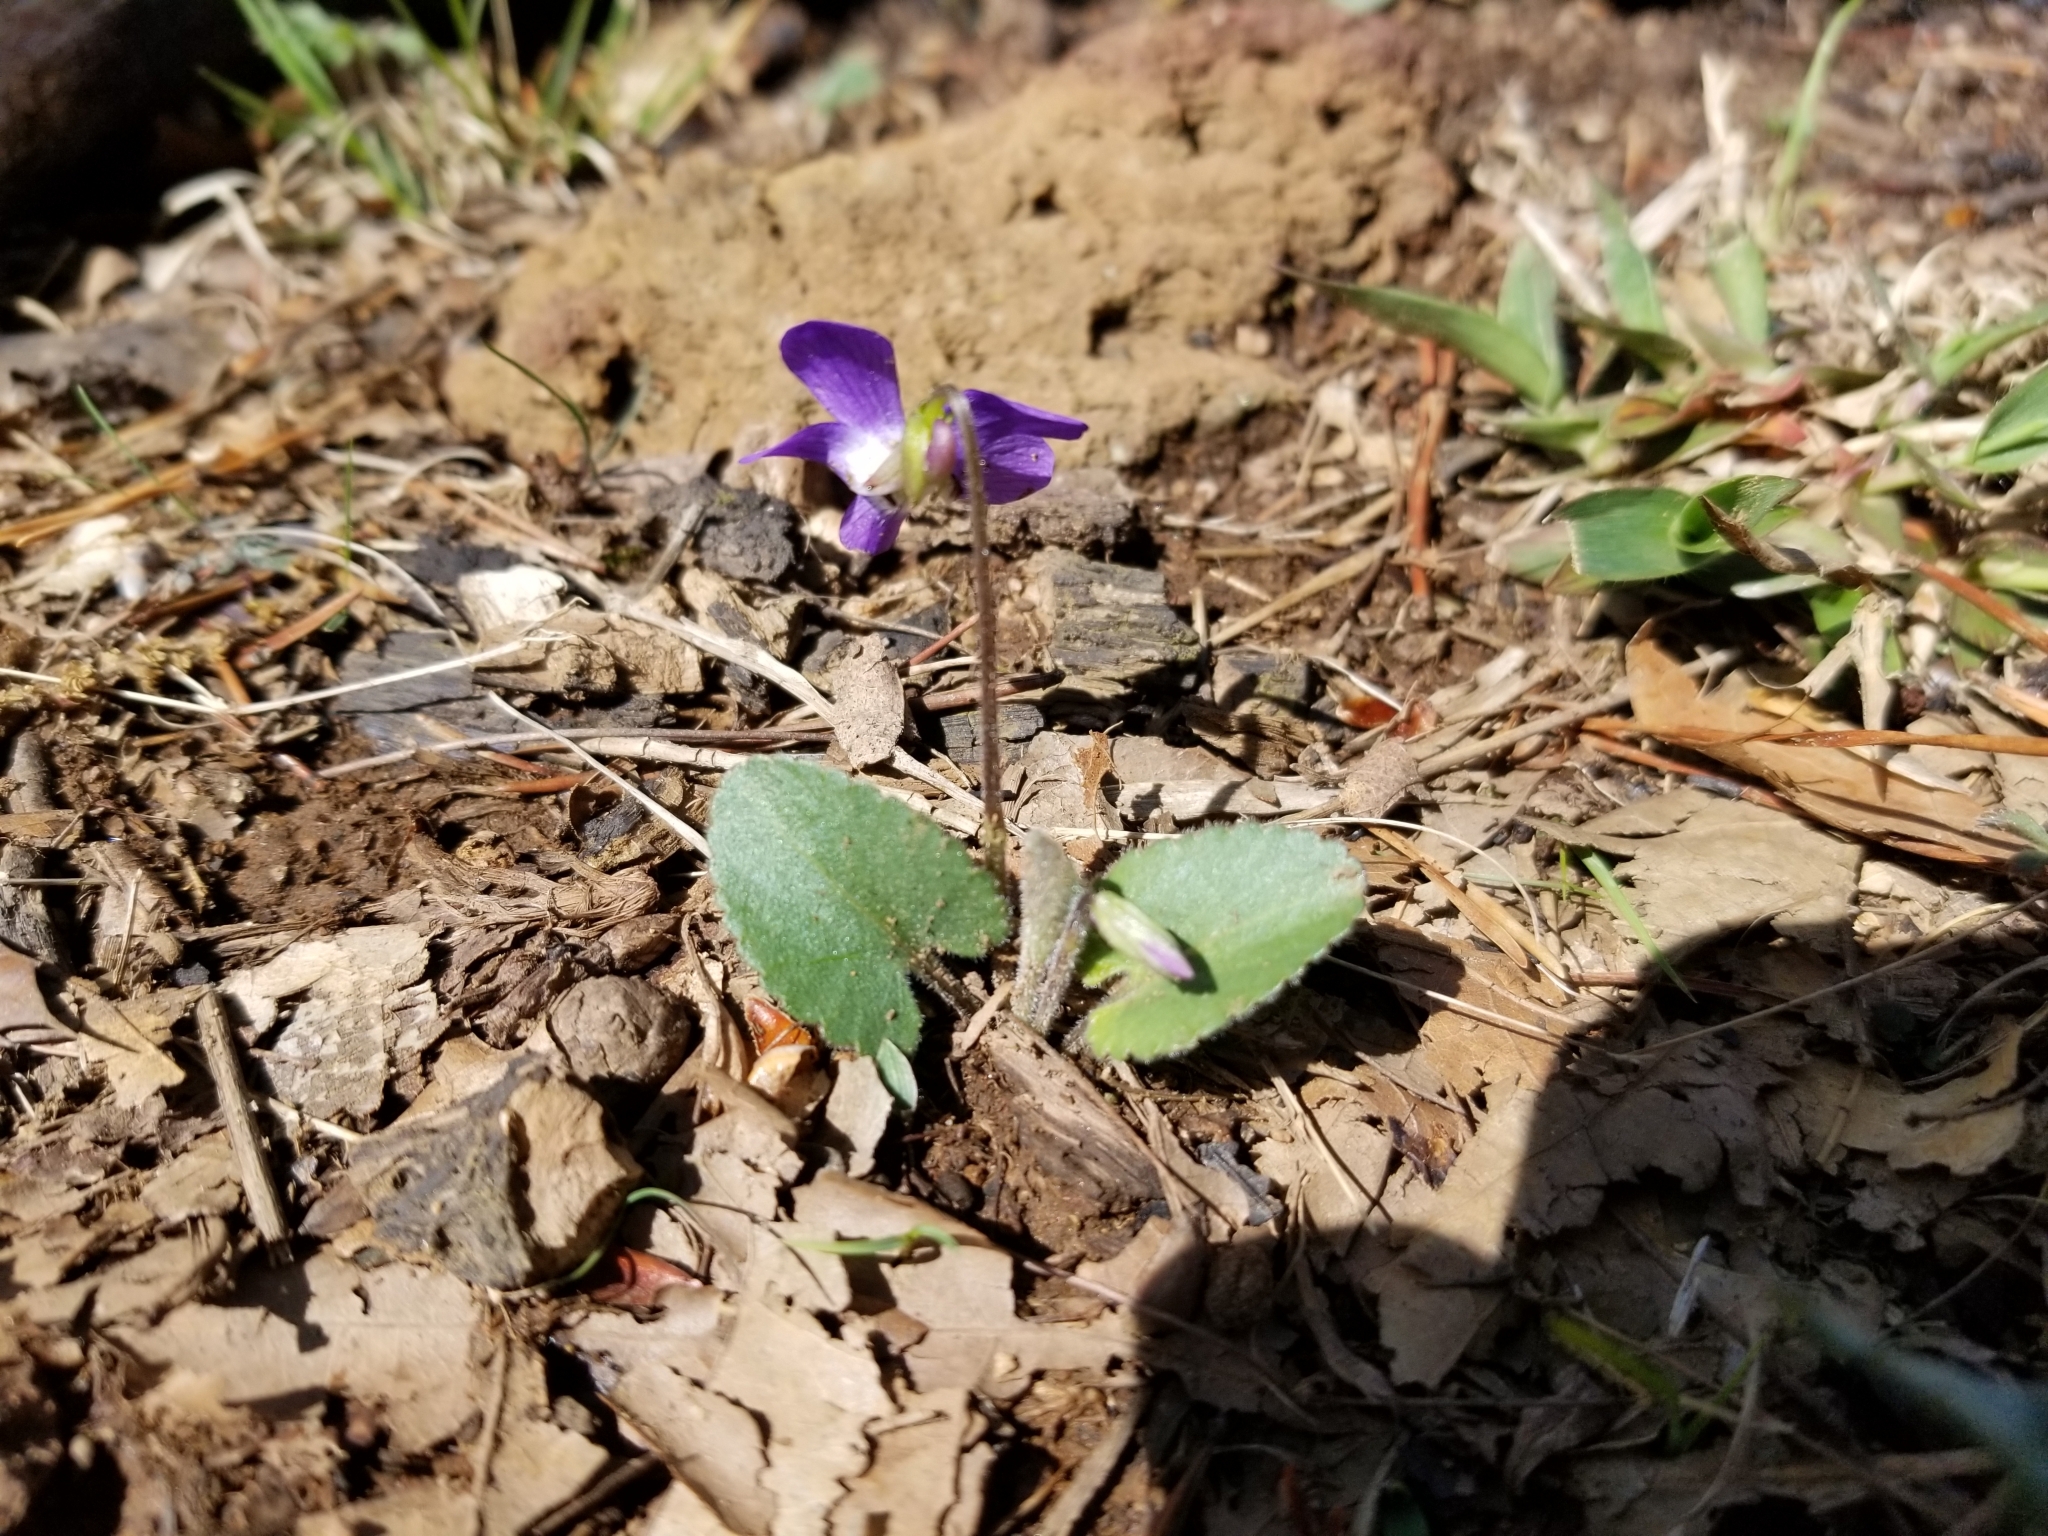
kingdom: Plantae
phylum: Tracheophyta
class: Magnoliopsida
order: Malpighiales
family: Violaceae
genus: Viola
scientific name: Viola sagittata
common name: Arrowhead violet
